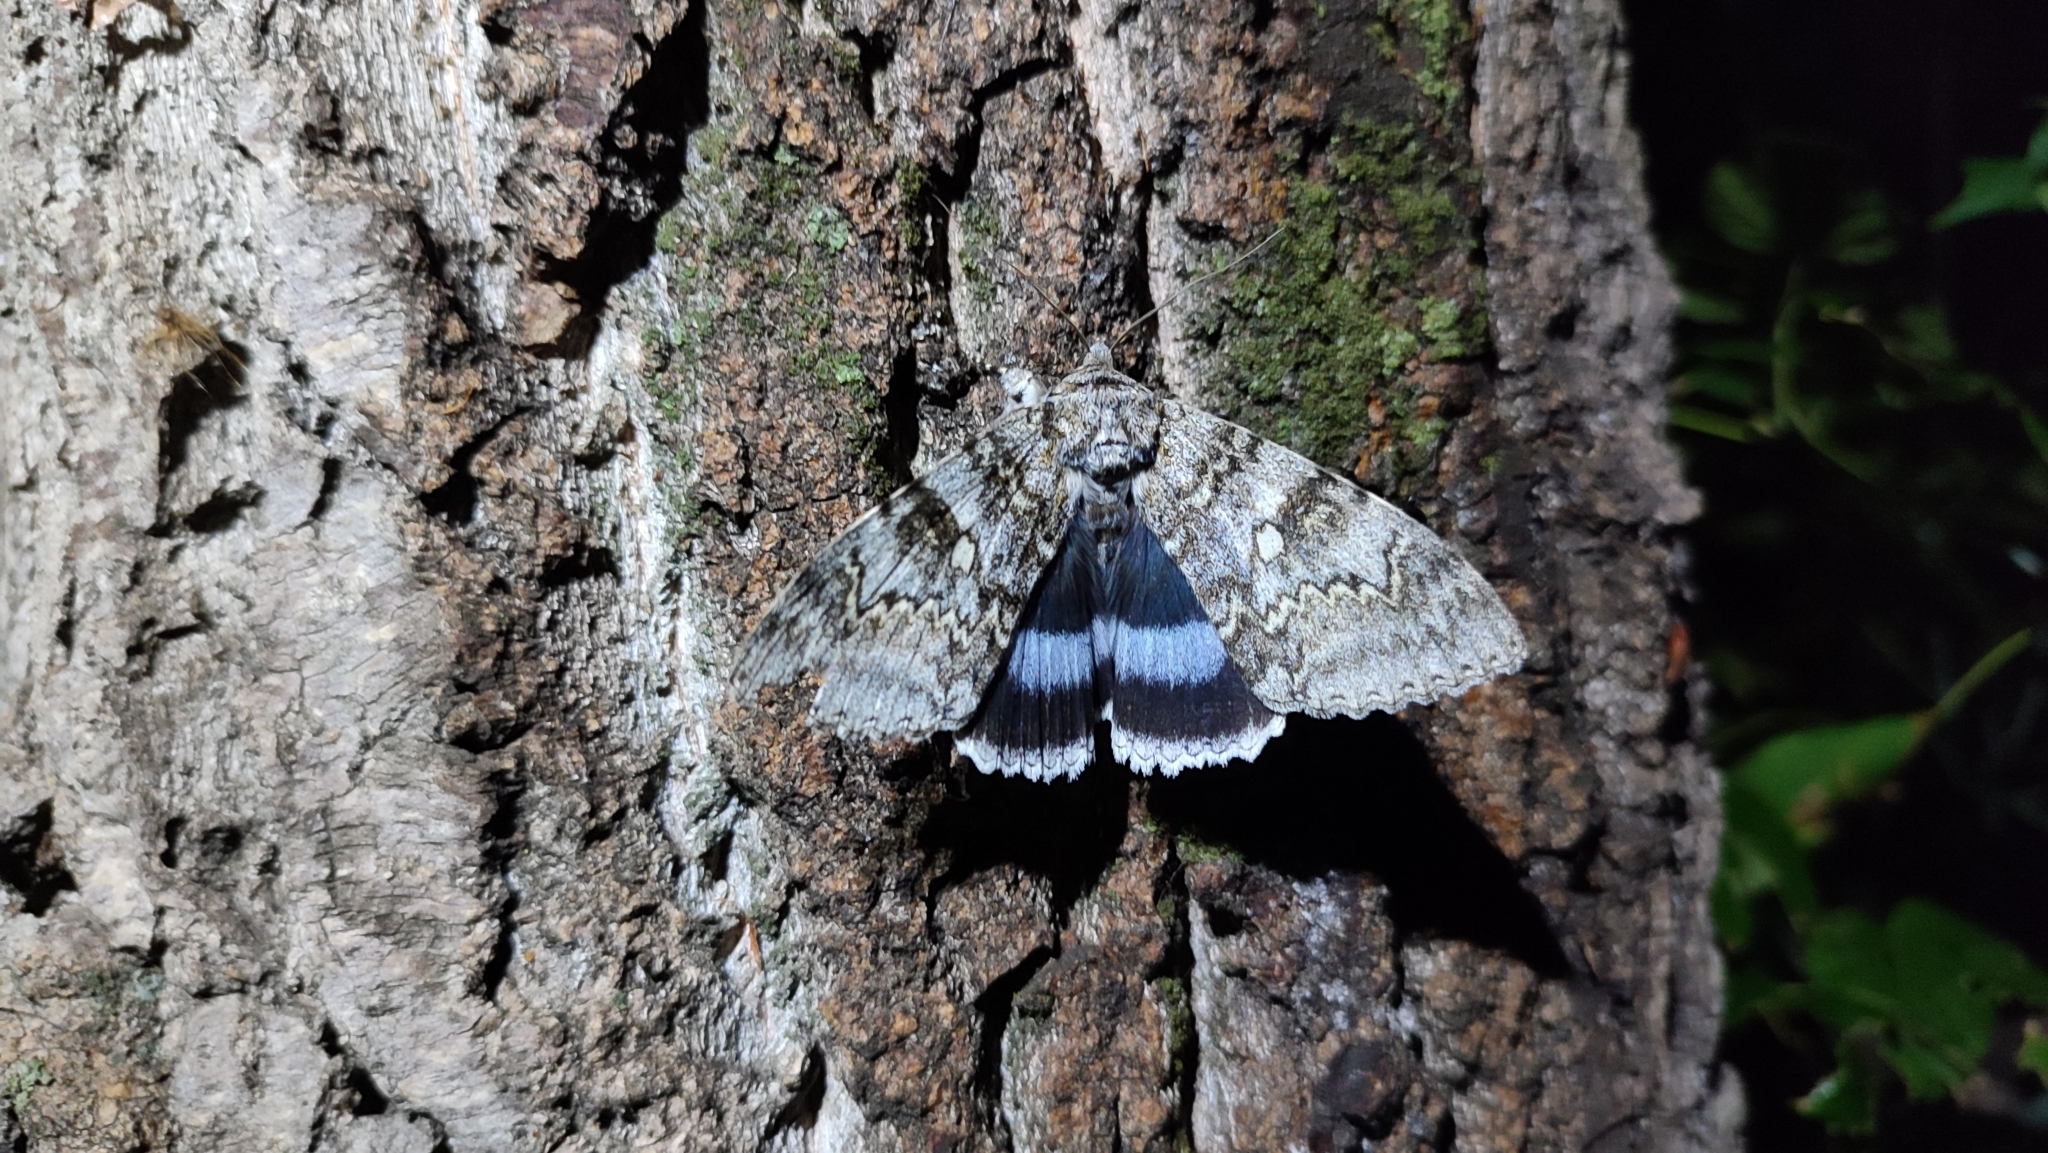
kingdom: Animalia
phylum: Arthropoda
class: Insecta
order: Lepidoptera
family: Erebidae
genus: Catocala
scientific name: Catocala fraxini
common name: Clifden nonpareil
